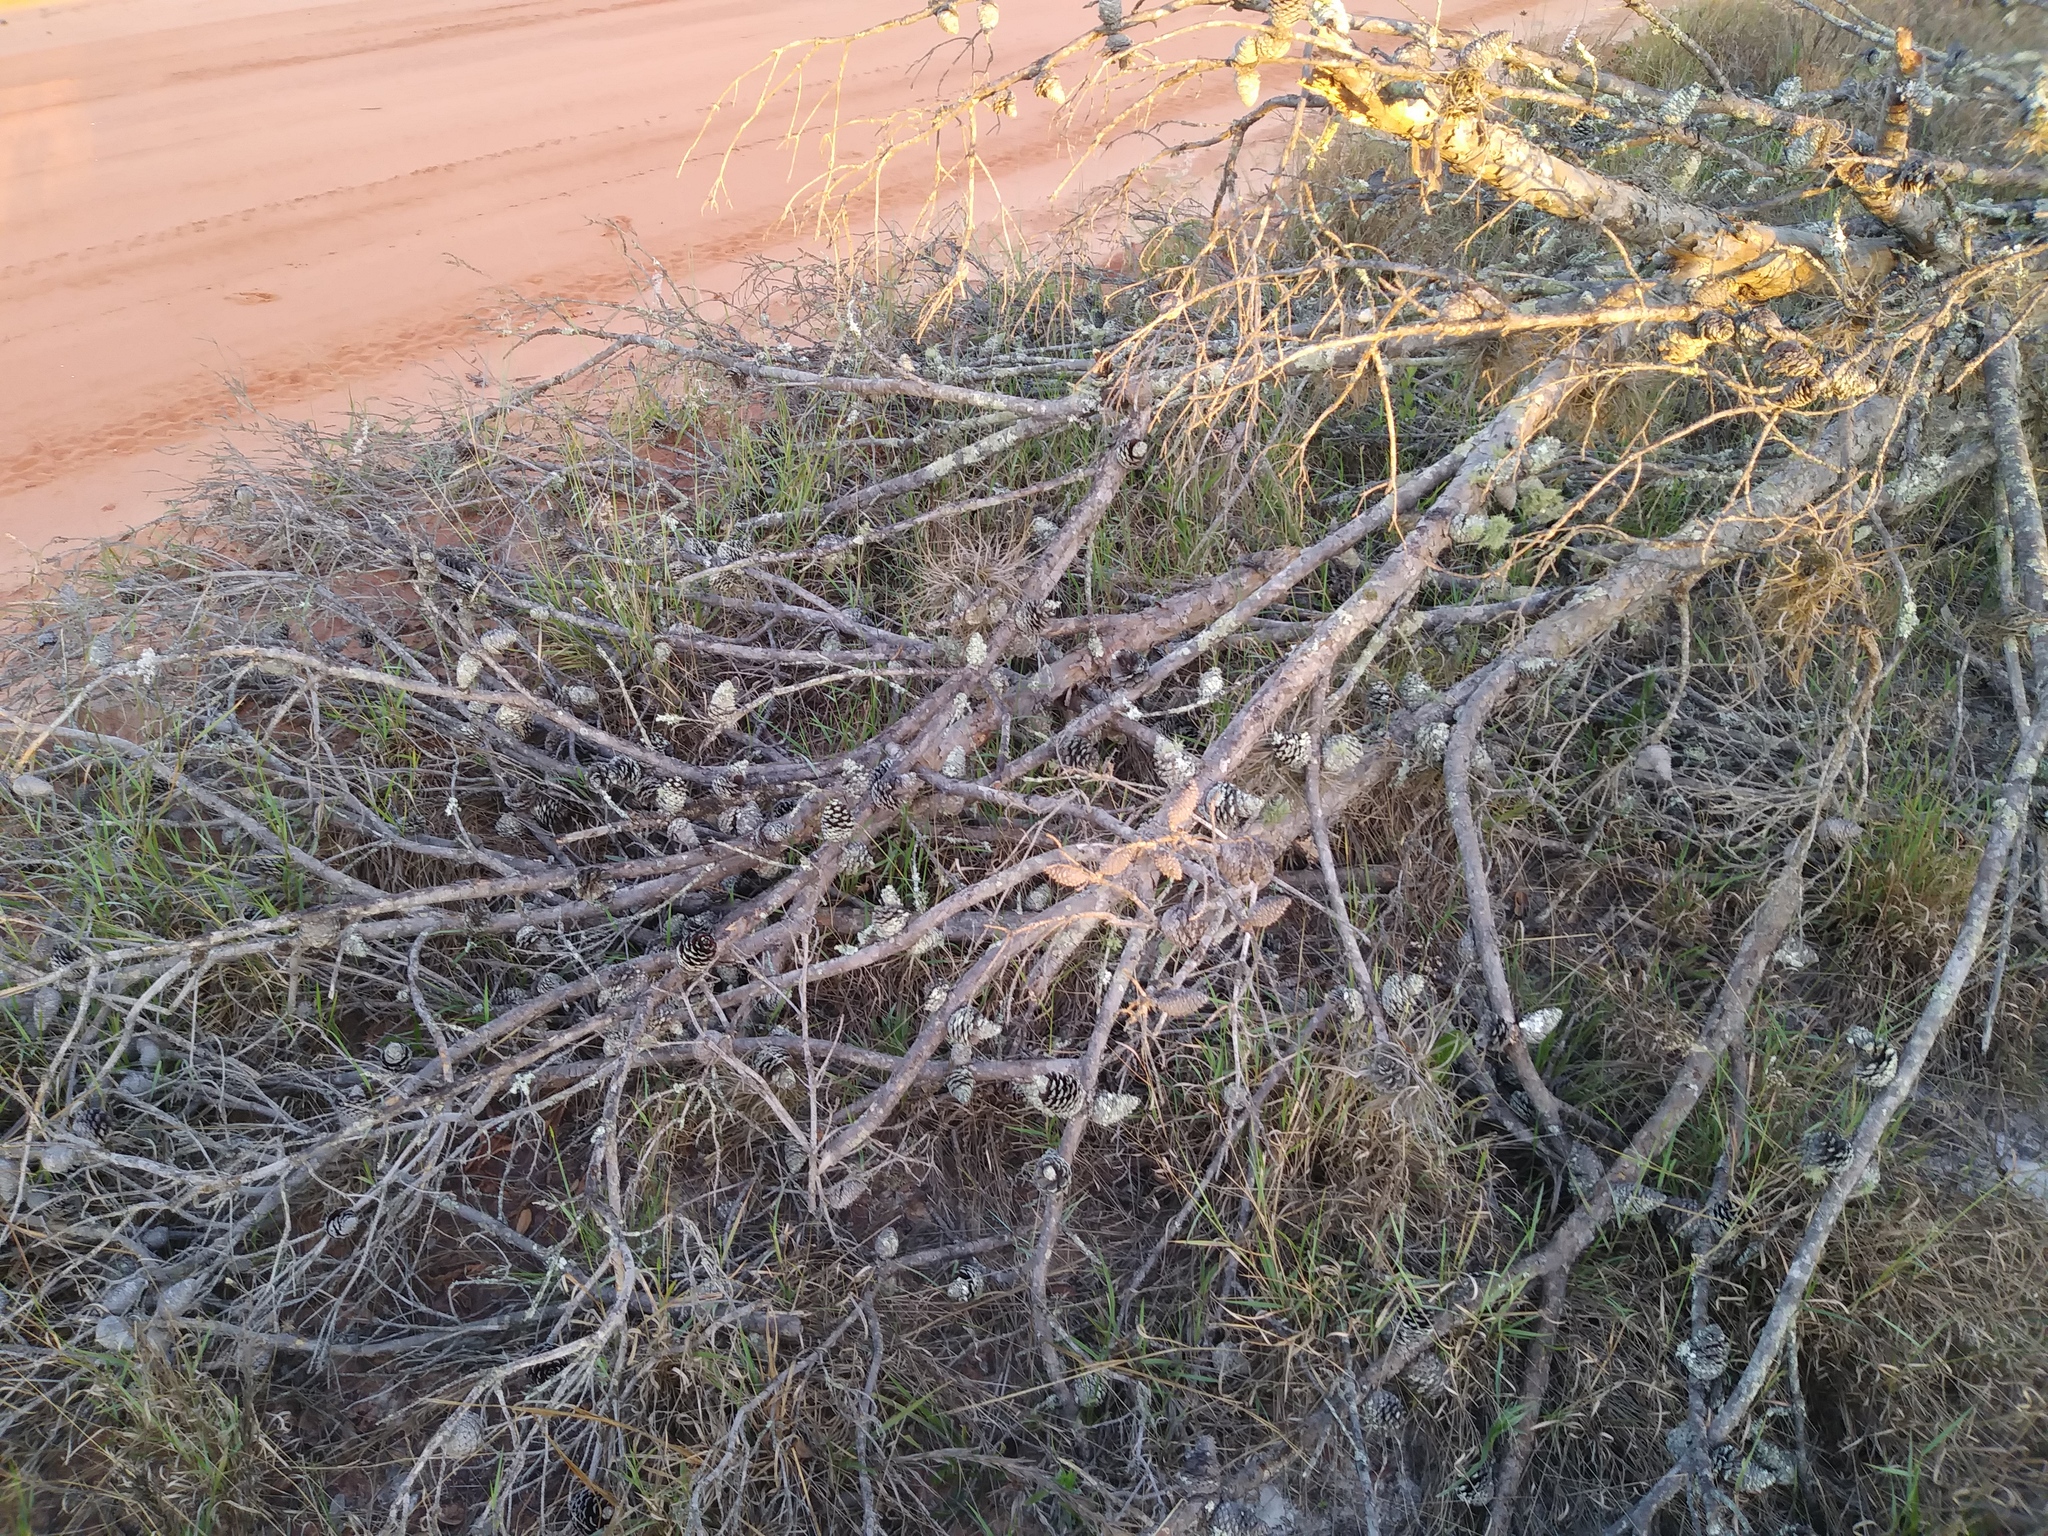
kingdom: Plantae
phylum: Tracheophyta
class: Pinopsida
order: Pinales
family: Pinaceae
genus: Pinus
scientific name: Pinus clausa
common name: Sand pine
